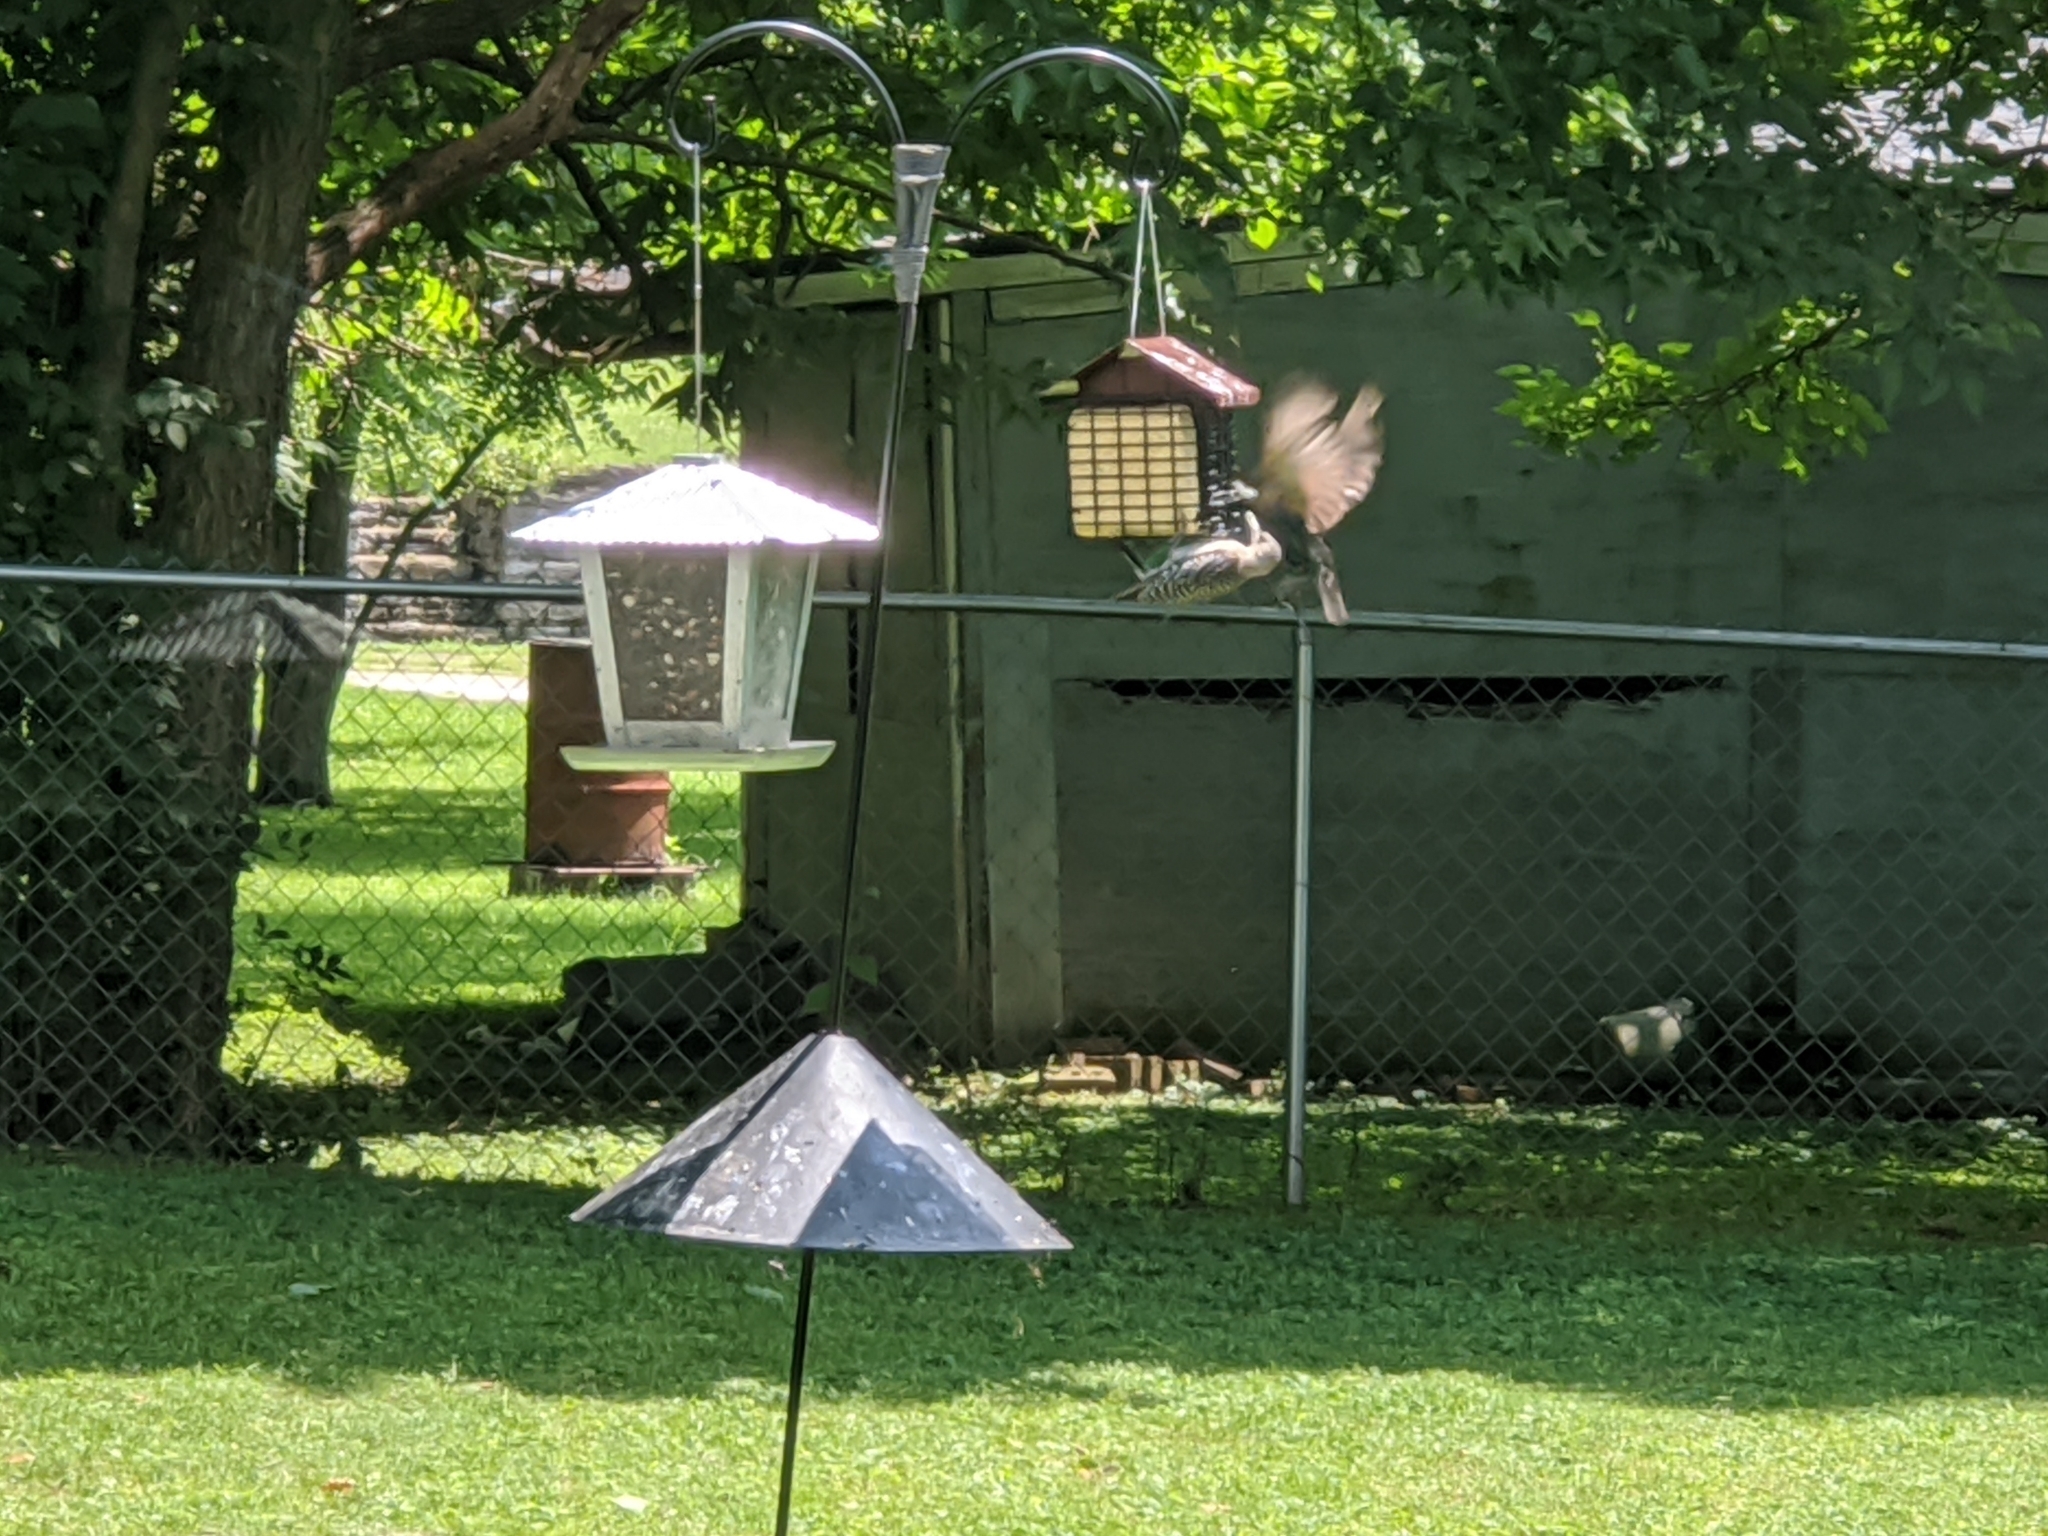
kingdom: Animalia
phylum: Chordata
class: Aves
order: Piciformes
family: Picidae
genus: Melanerpes
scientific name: Melanerpes carolinus
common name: Red-bellied woodpecker
